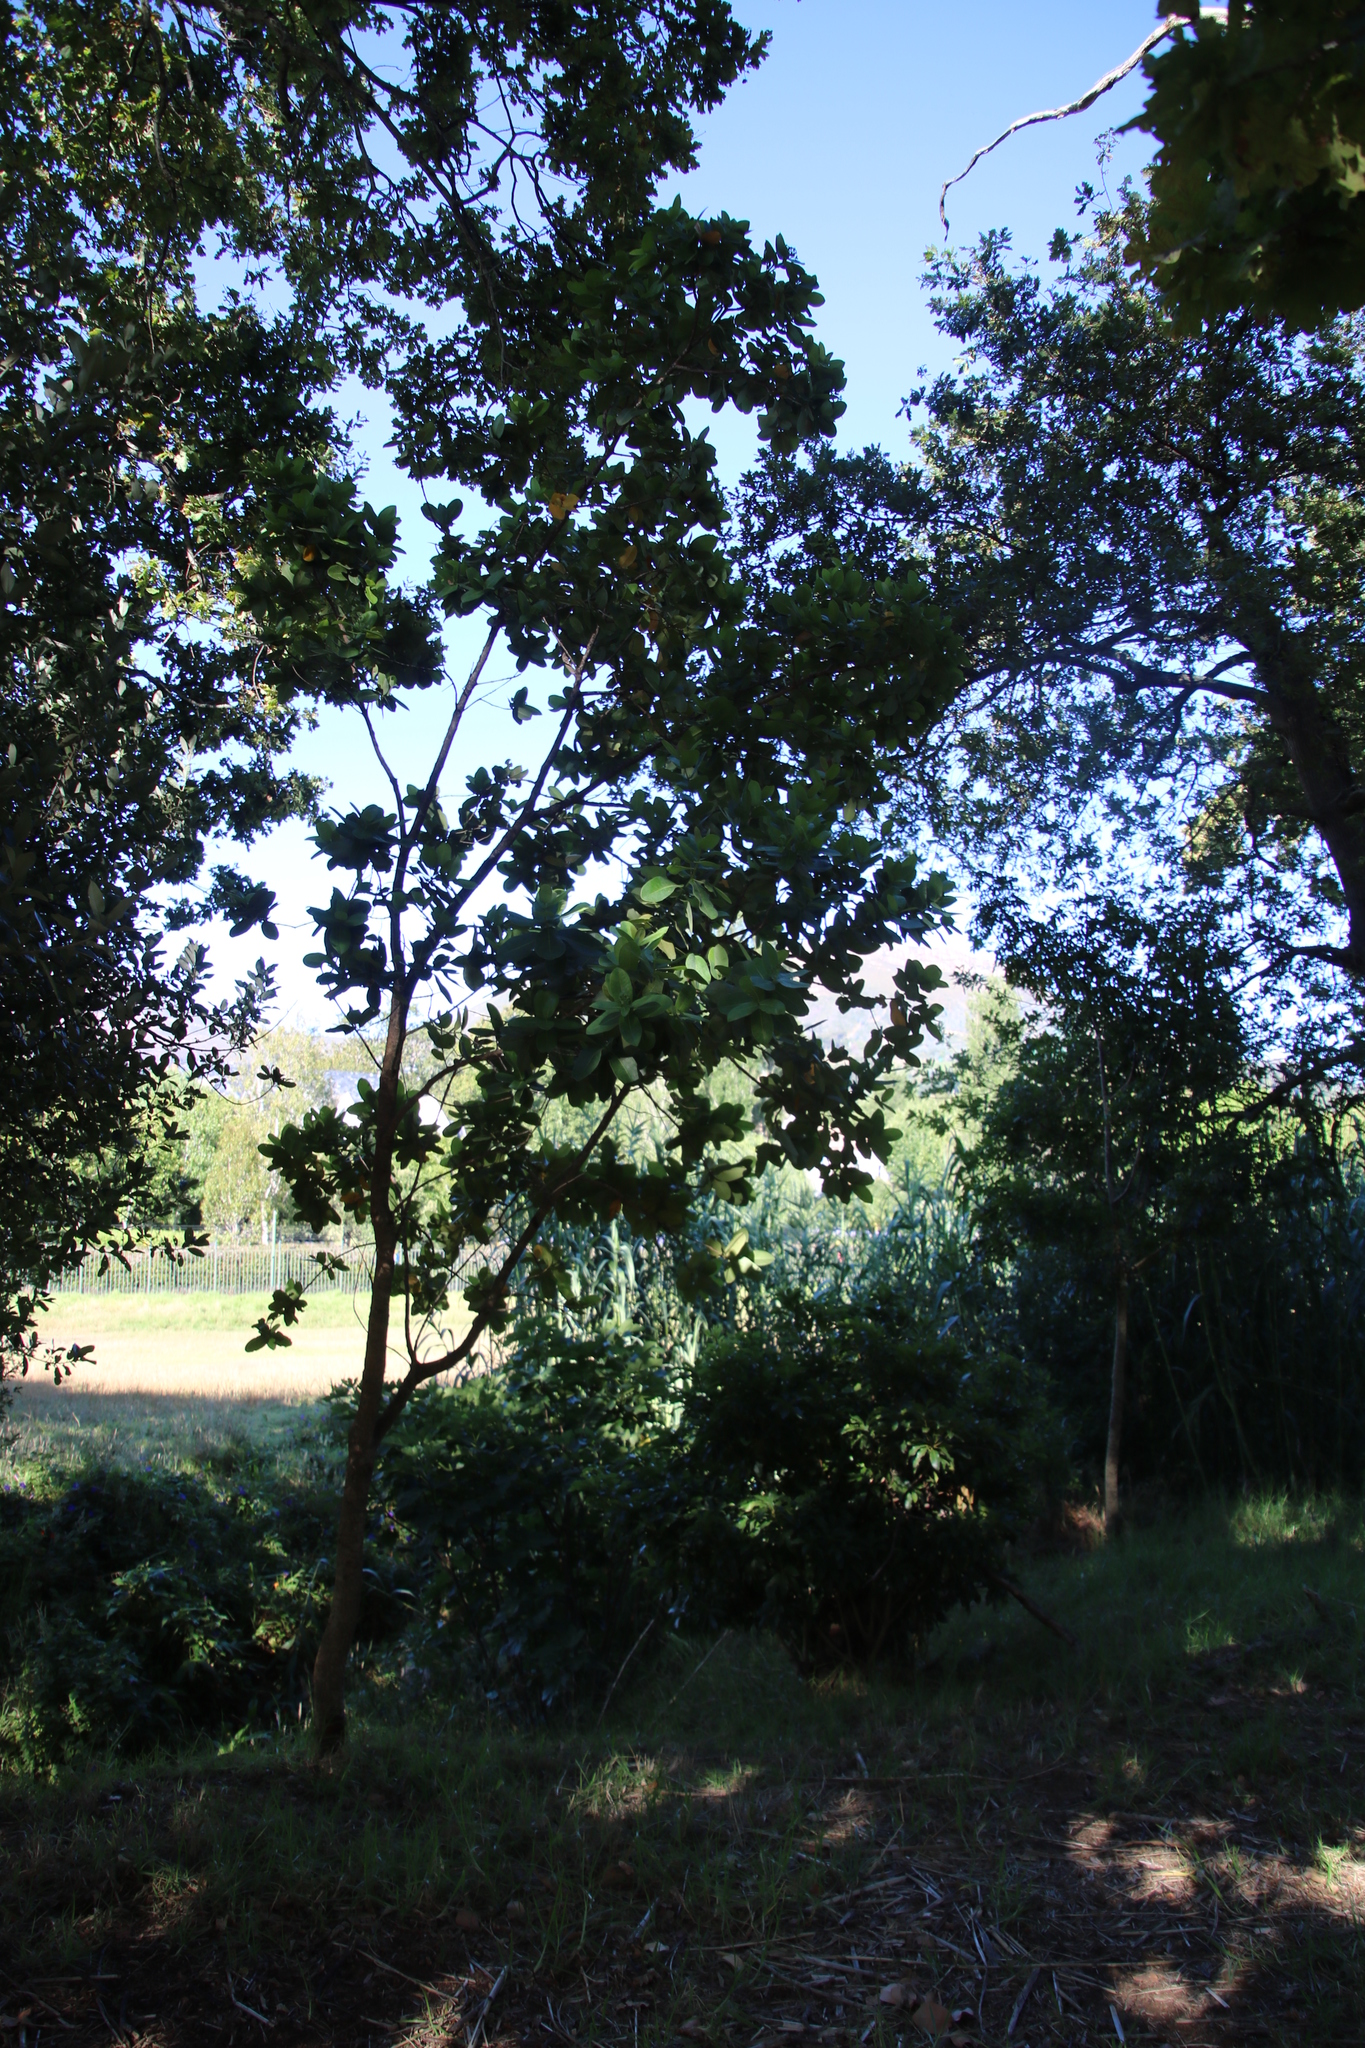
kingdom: Plantae
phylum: Tracheophyta
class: Magnoliopsida
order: Myrtales
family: Myrtaceae
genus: Syzygium
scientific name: Syzygium cordatum
